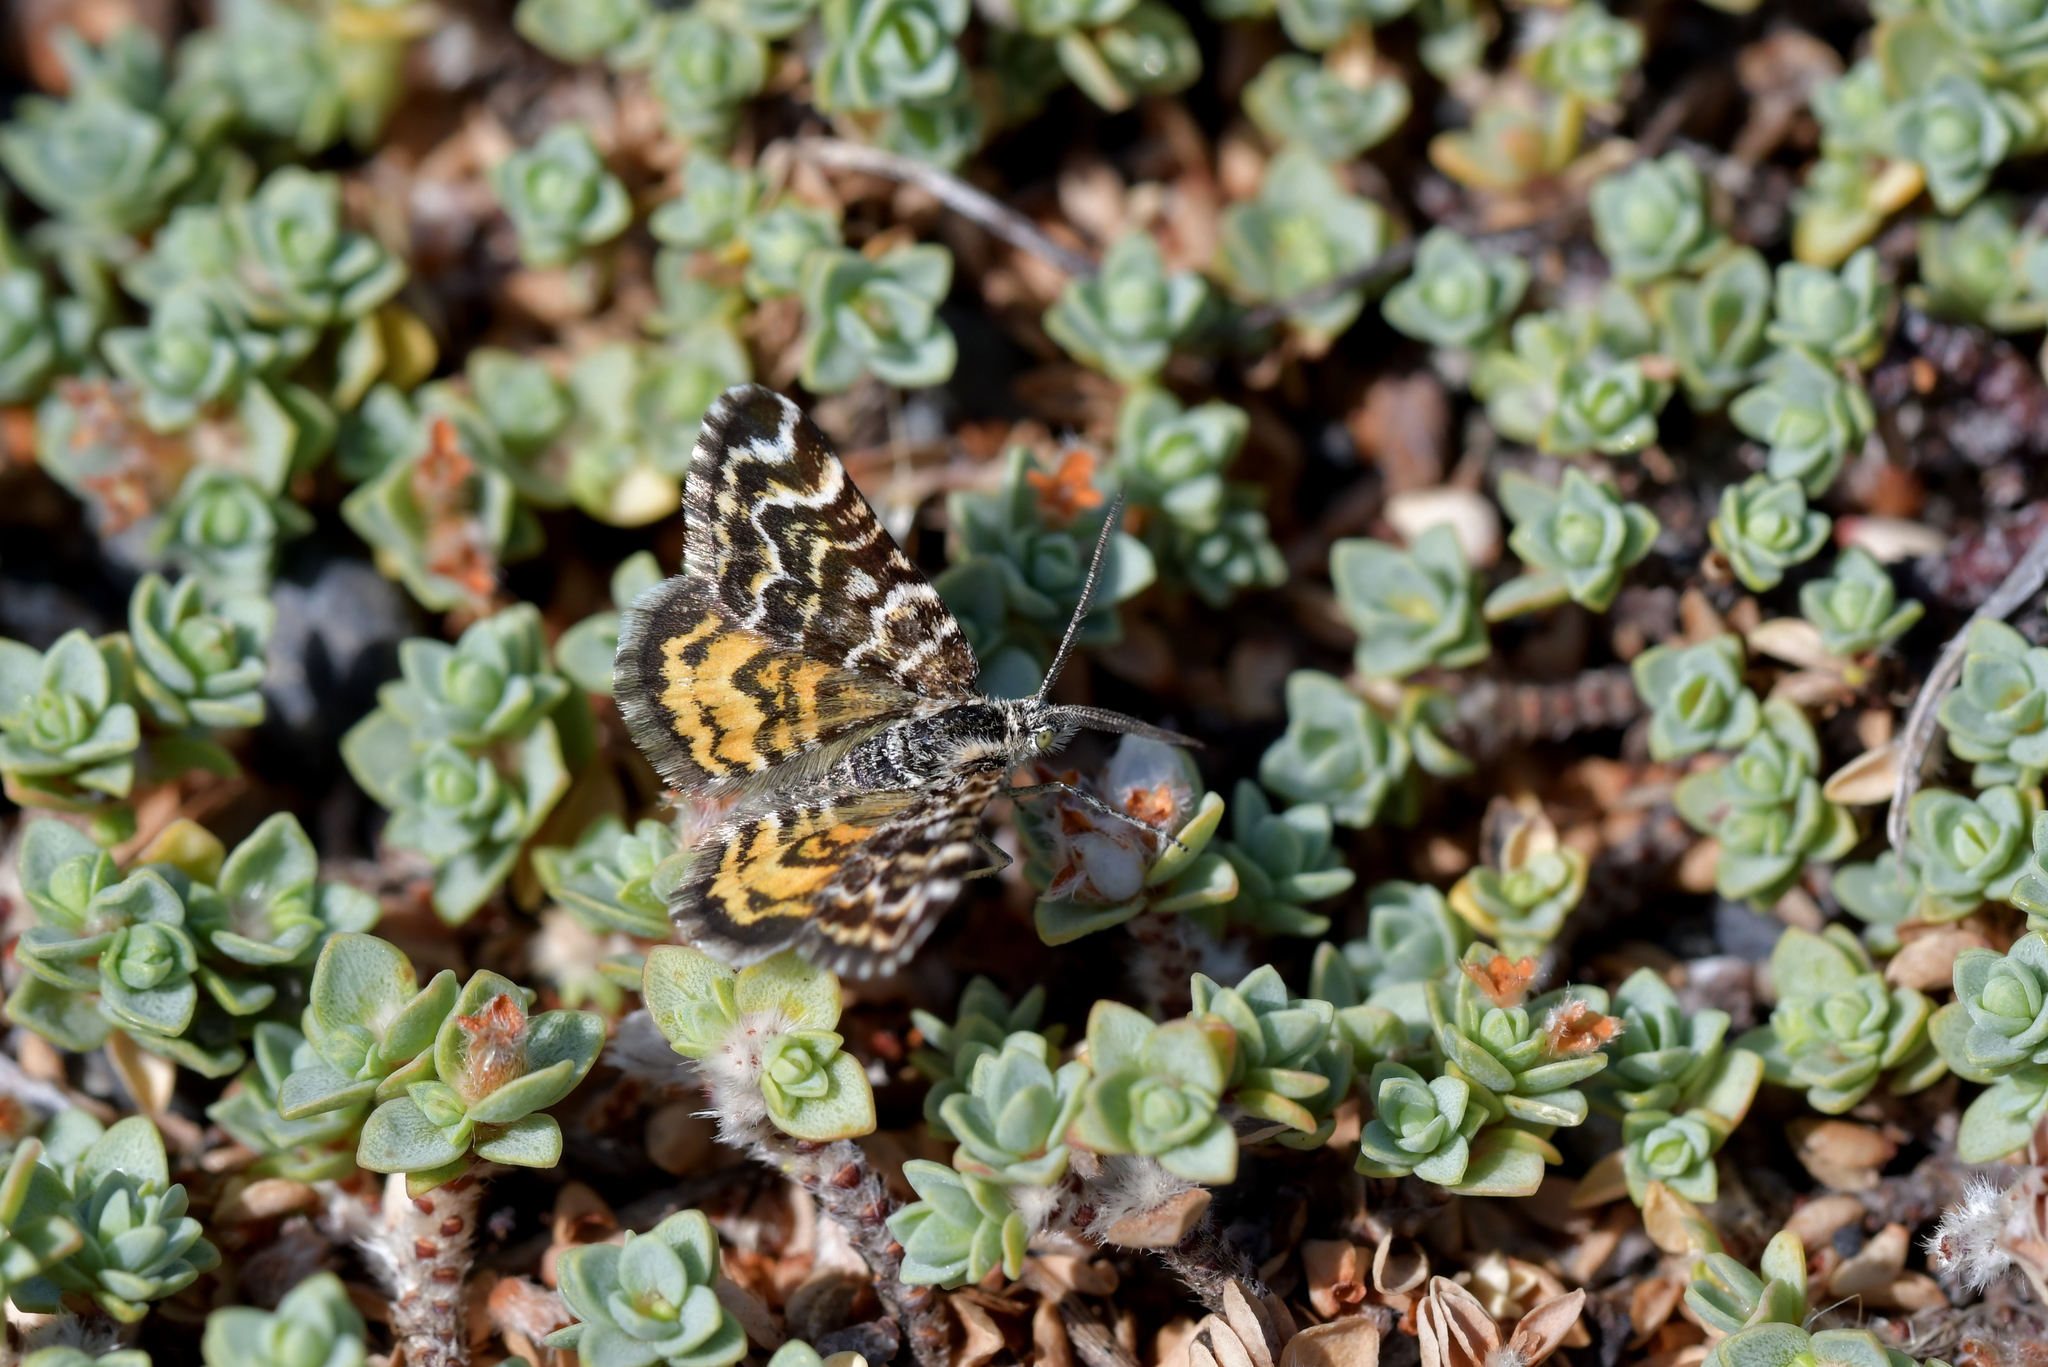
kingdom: Animalia
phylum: Arthropoda
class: Insecta
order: Lepidoptera
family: Geometridae
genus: Notoreas
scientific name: Notoreas perornata
